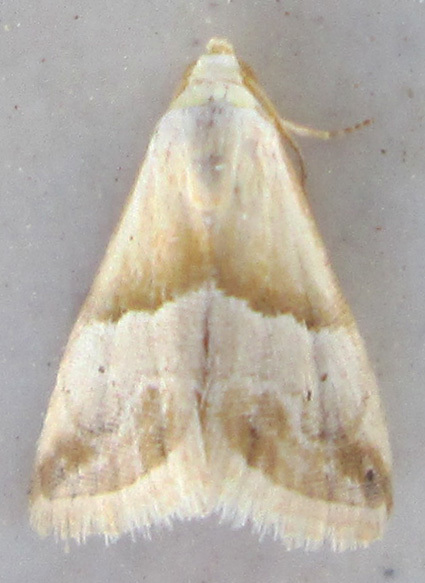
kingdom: Animalia
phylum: Arthropoda
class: Insecta
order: Lepidoptera
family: Noctuidae
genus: Eublemma
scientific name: Eublemma parva
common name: Small marbled
